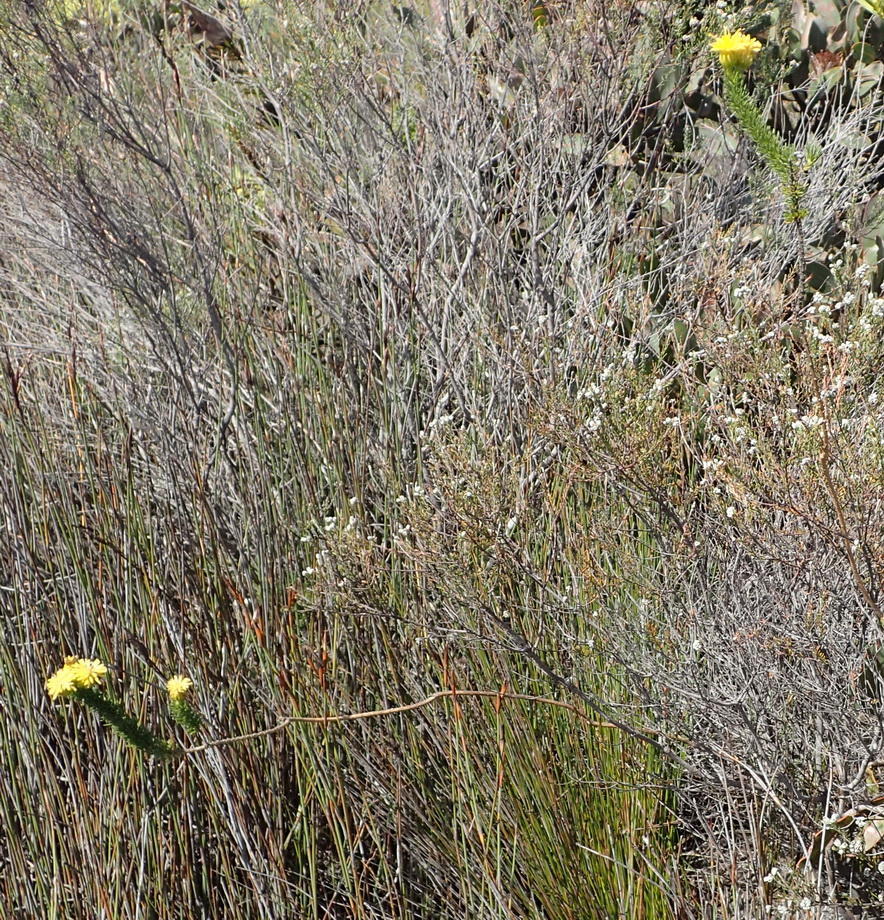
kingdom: Plantae
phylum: Tracheophyta
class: Magnoliopsida
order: Asterales
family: Asteraceae
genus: Pteronia
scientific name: Pteronia camphorata
